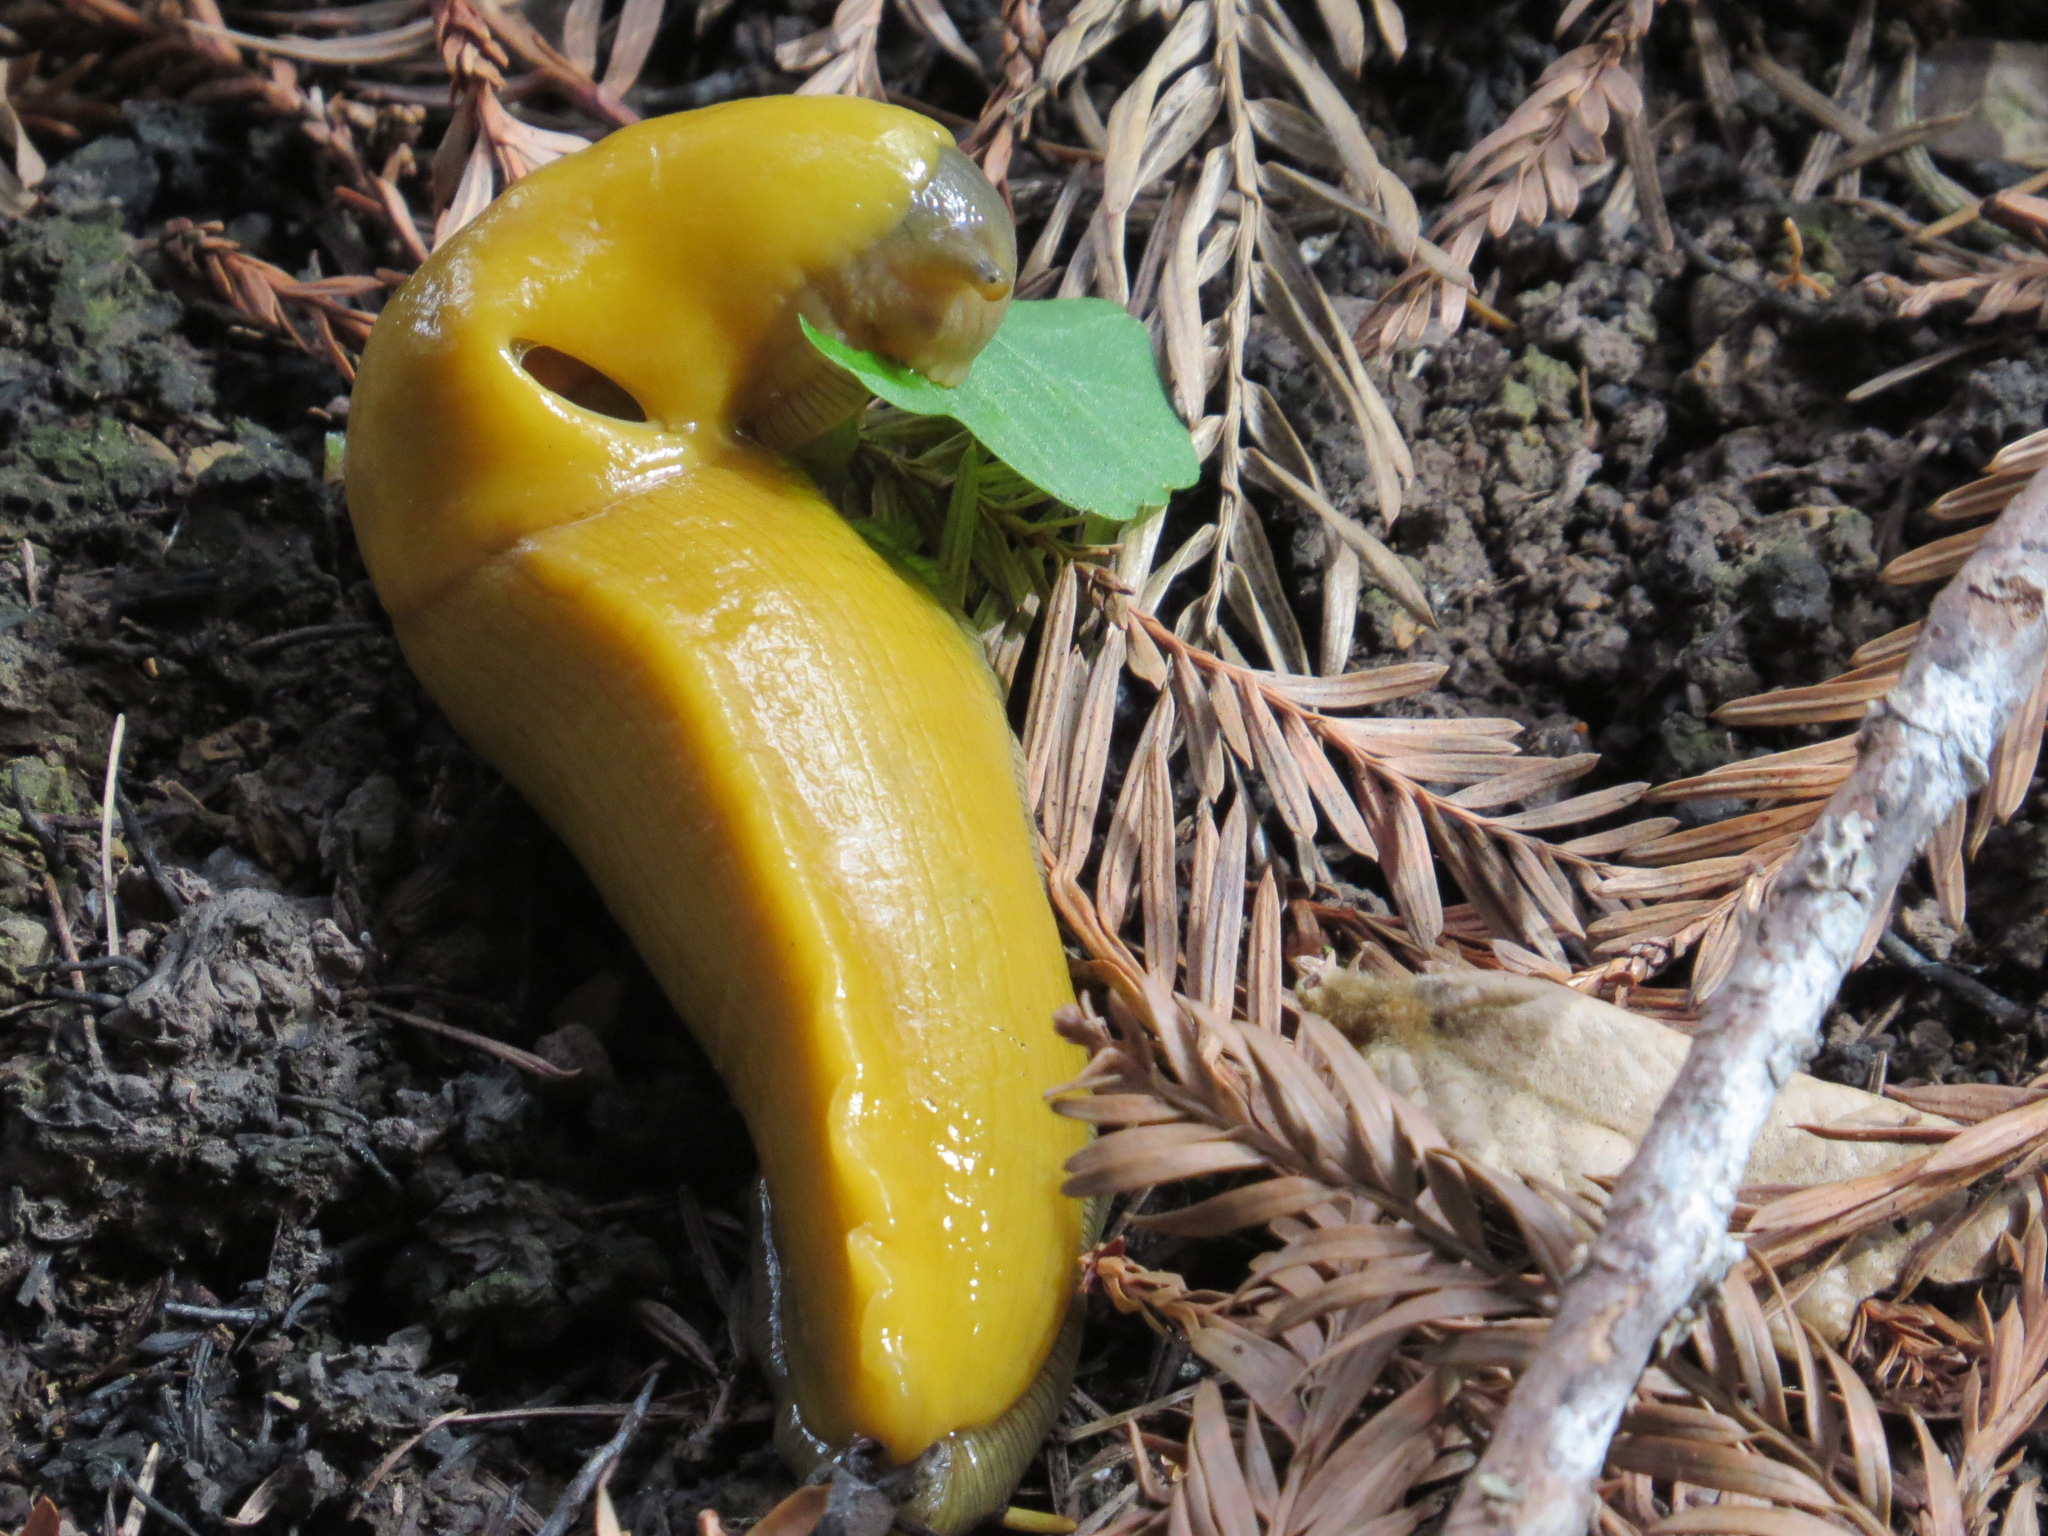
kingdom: Animalia
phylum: Mollusca
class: Gastropoda
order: Stylommatophora
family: Ariolimacidae
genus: Ariolimax
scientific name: Ariolimax californicus
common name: California banana slug
